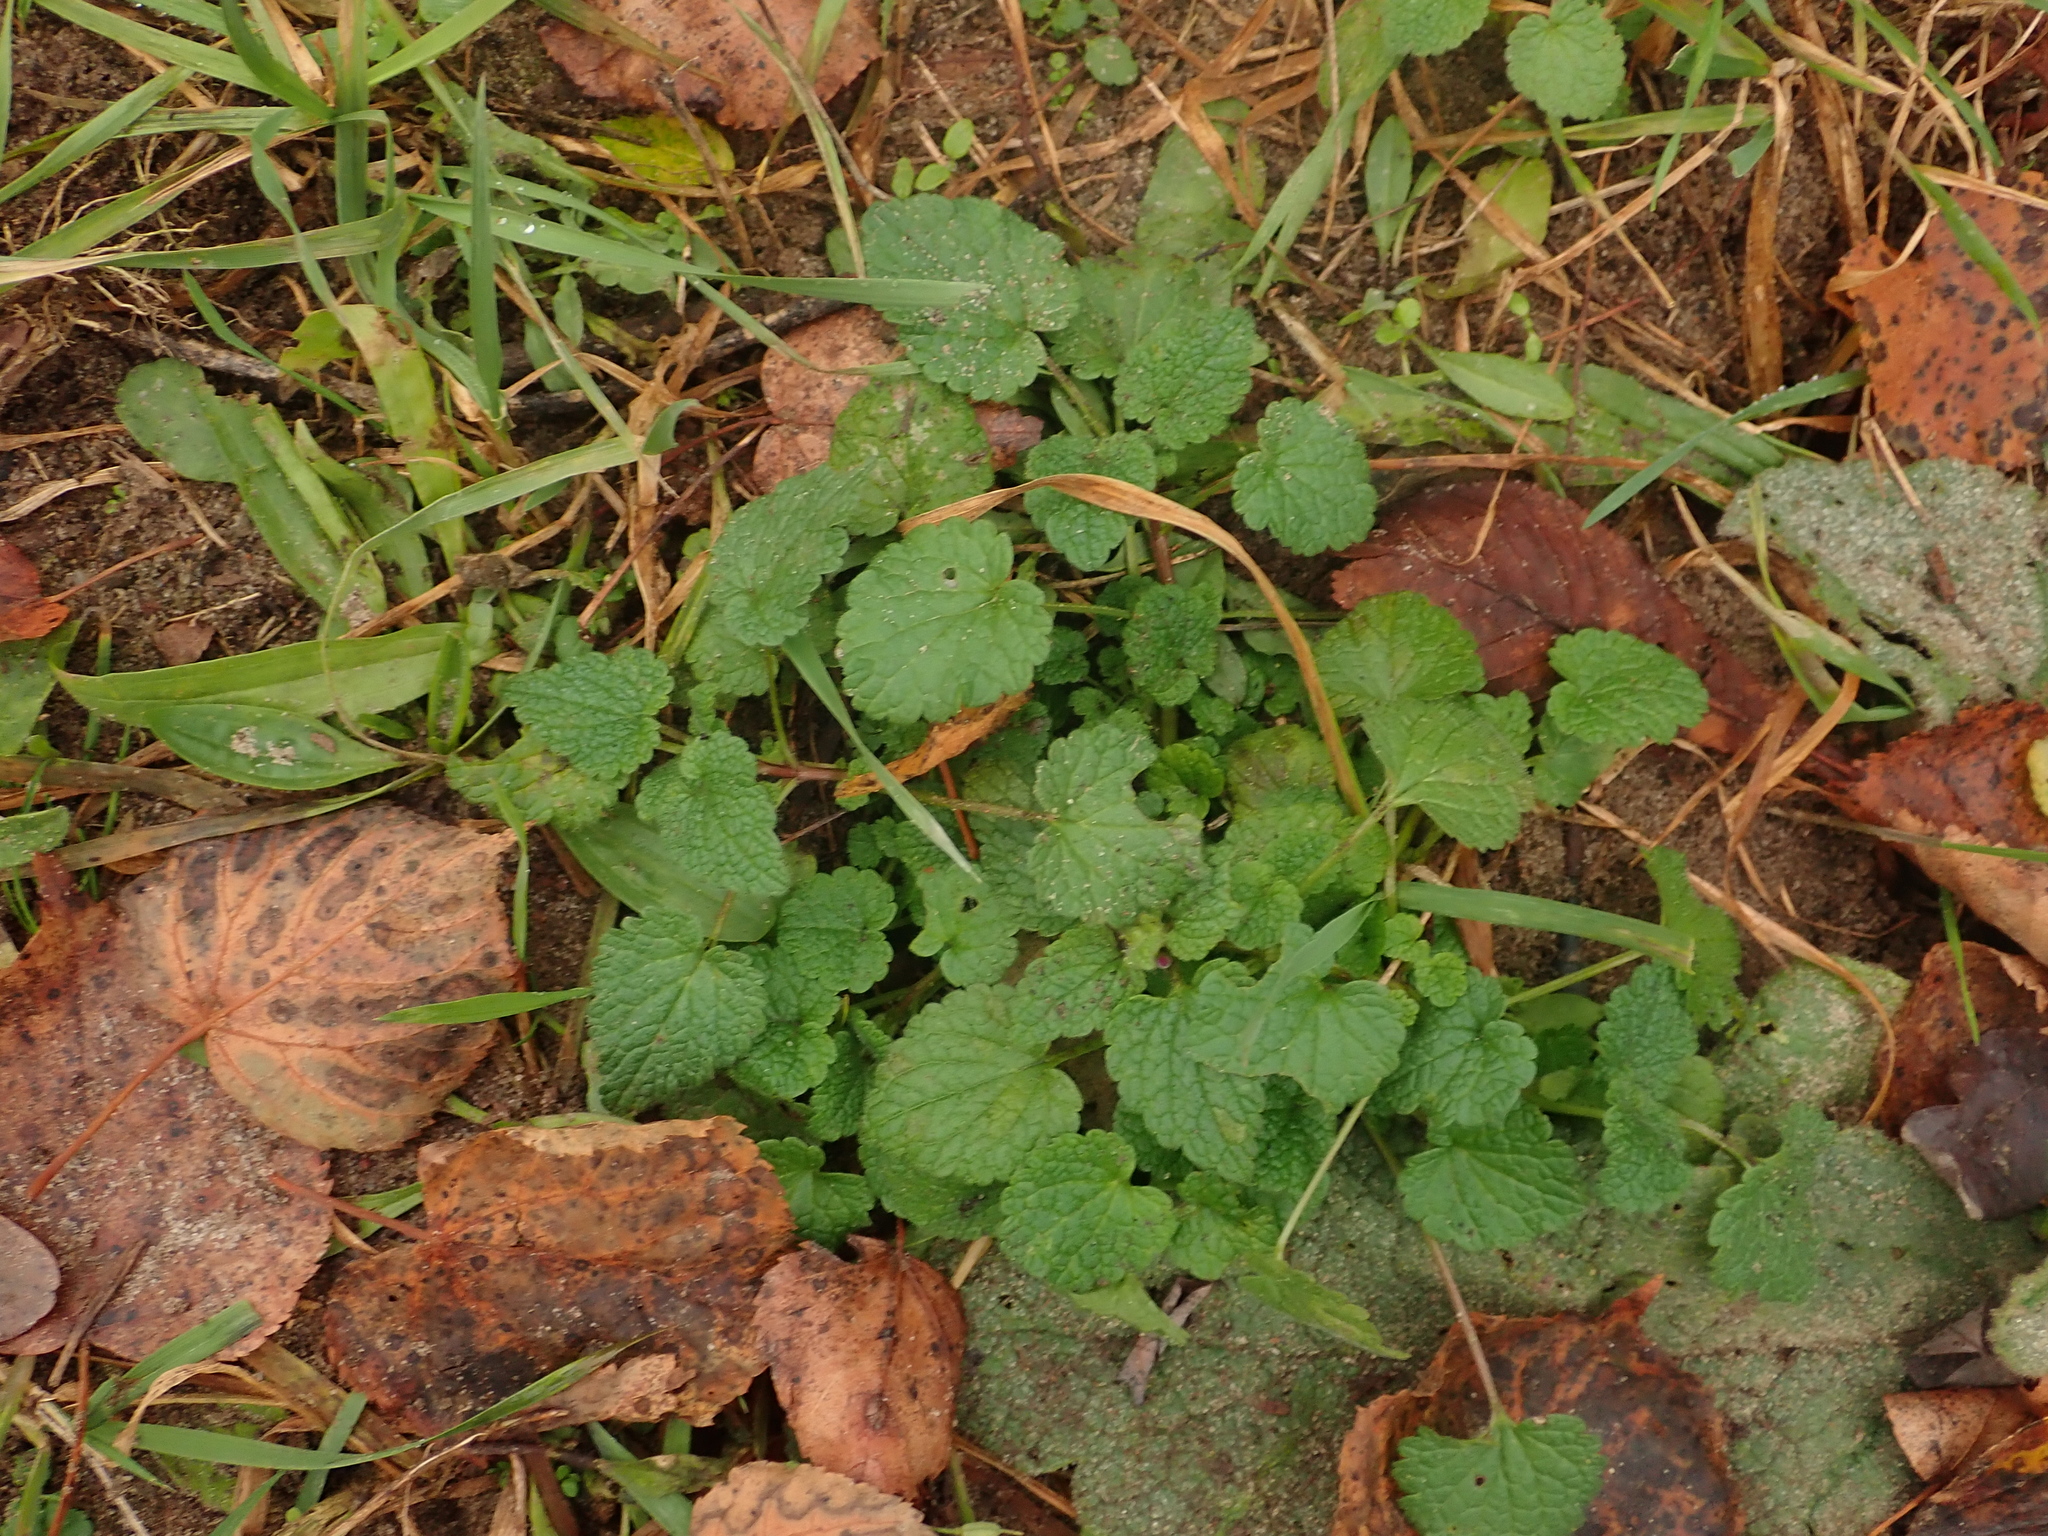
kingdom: Plantae
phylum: Tracheophyta
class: Magnoliopsida
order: Lamiales
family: Lamiaceae
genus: Lamium
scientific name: Lamium purpureum
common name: Red dead-nettle
